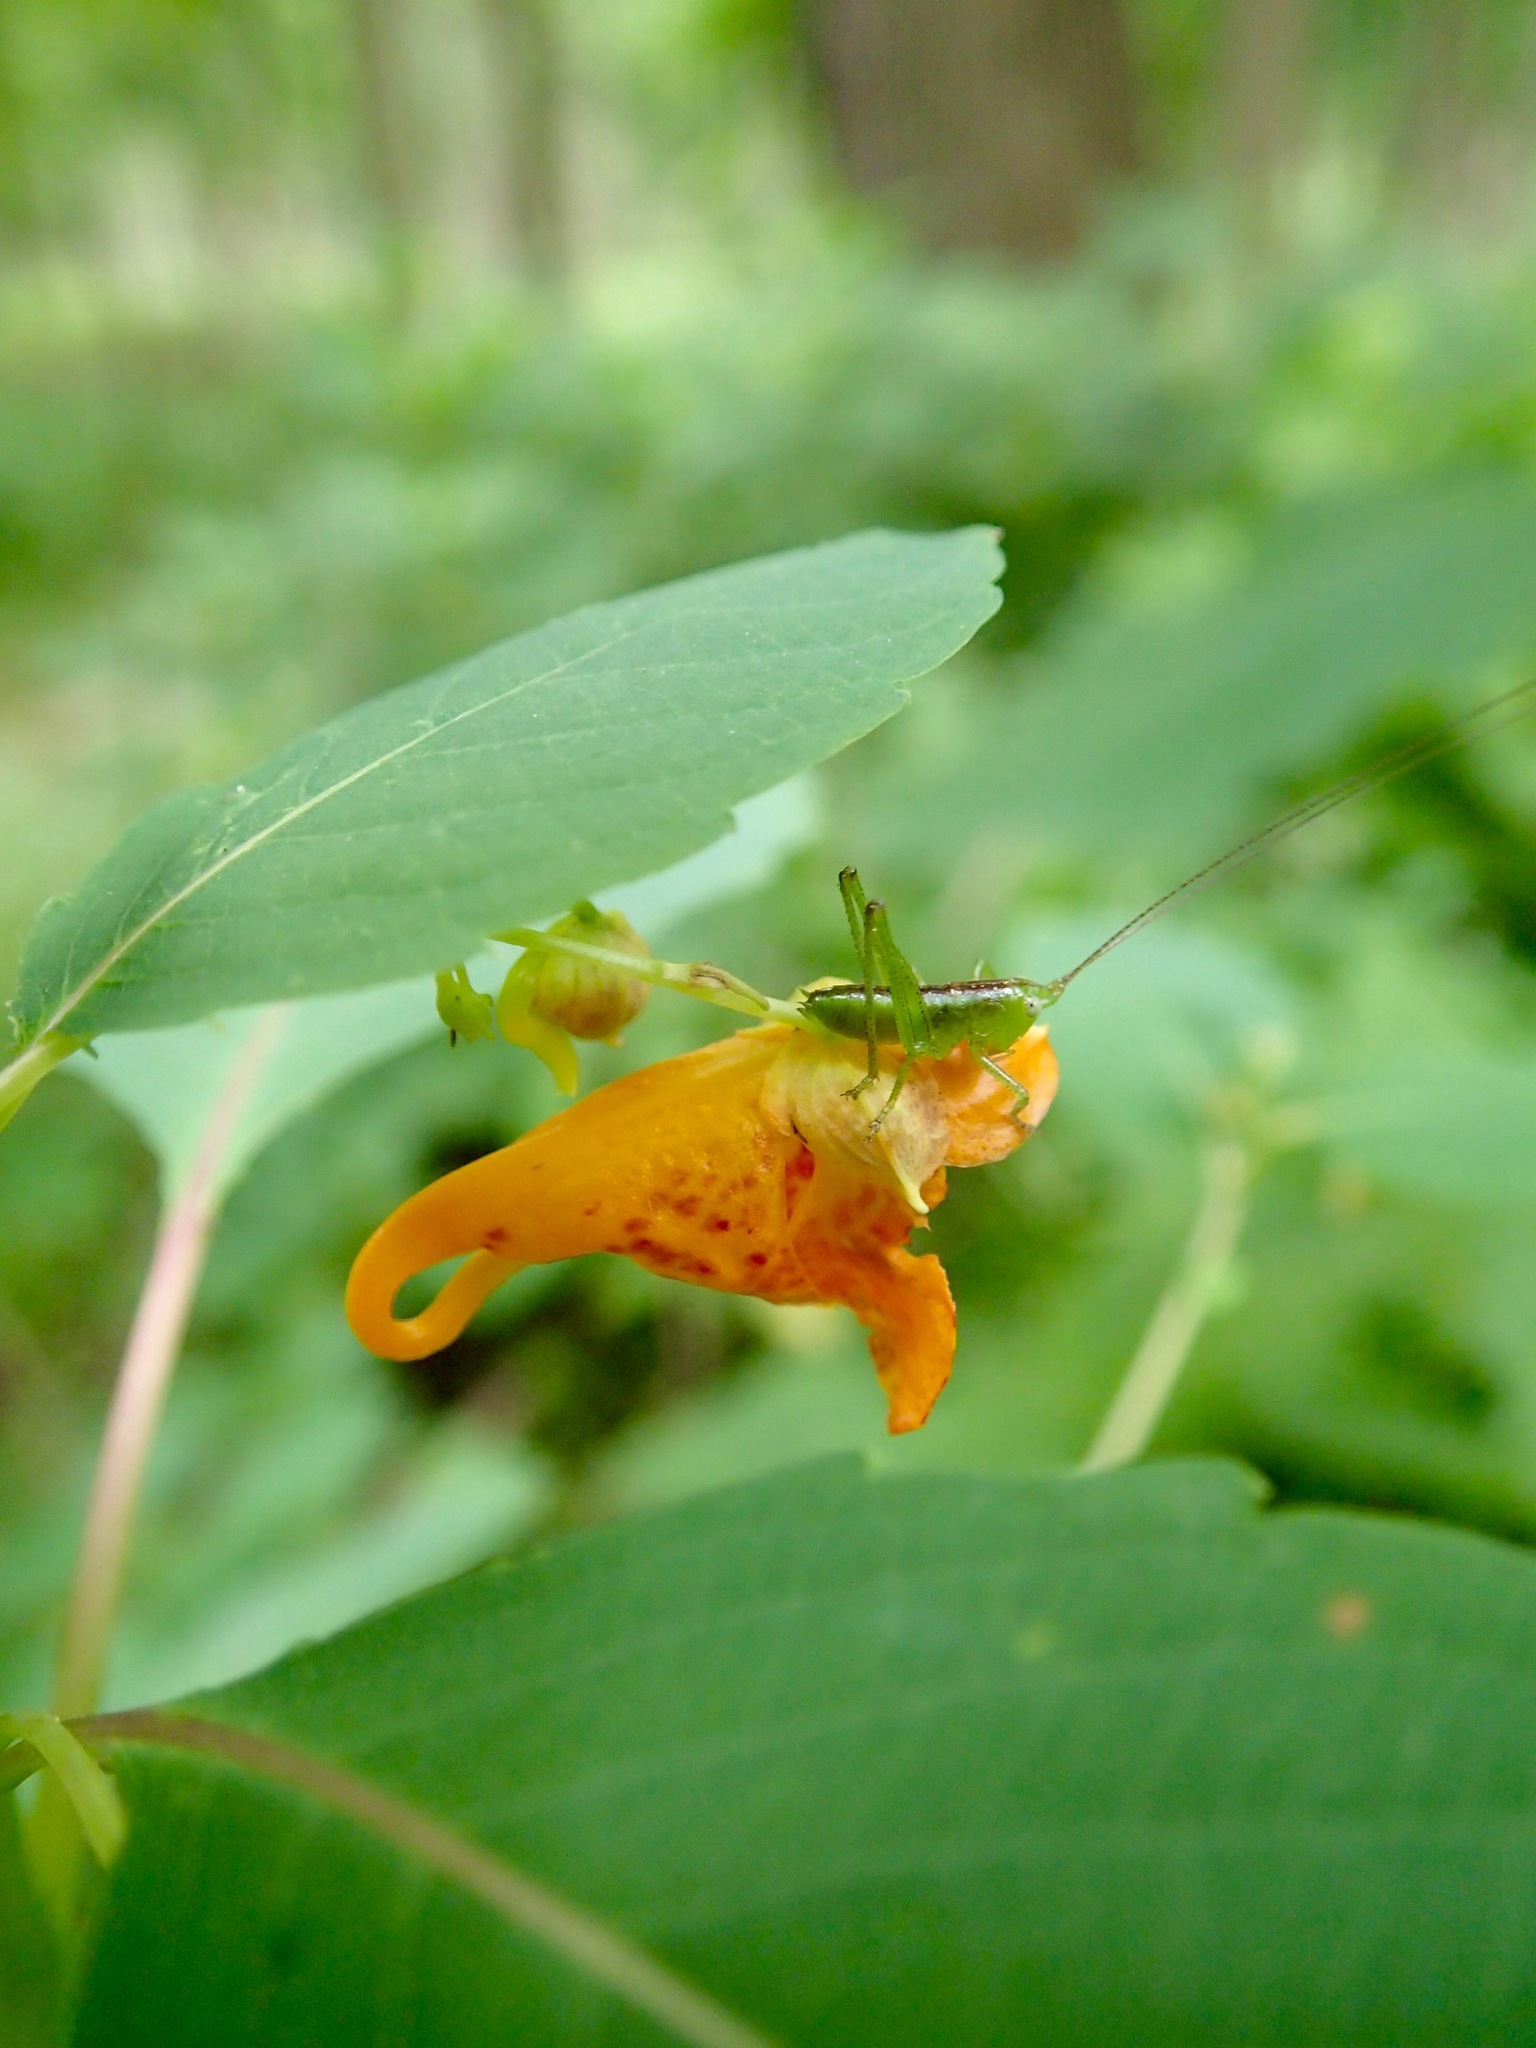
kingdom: Plantae
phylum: Tracheophyta
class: Magnoliopsida
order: Ericales
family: Balsaminaceae
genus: Impatiens
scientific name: Impatiens capensis
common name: Orange balsam
